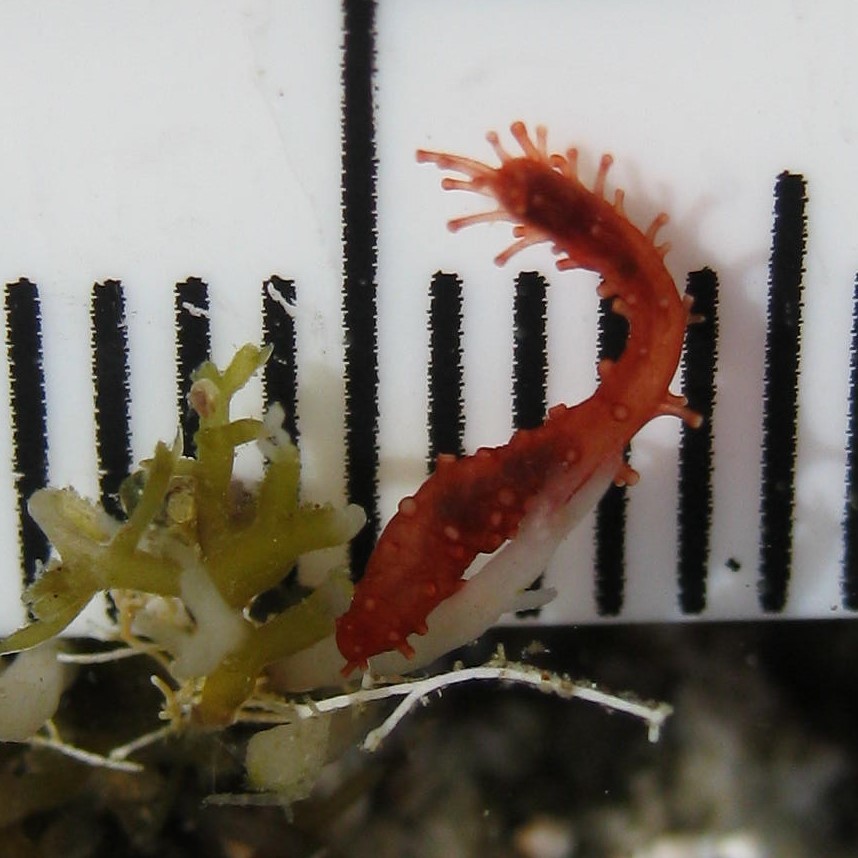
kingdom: Animalia
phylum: Echinodermata
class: Holothuroidea
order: Dendrochirotida
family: Cucumariidae
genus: Squamocnus
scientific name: Squamocnus brevidentis
